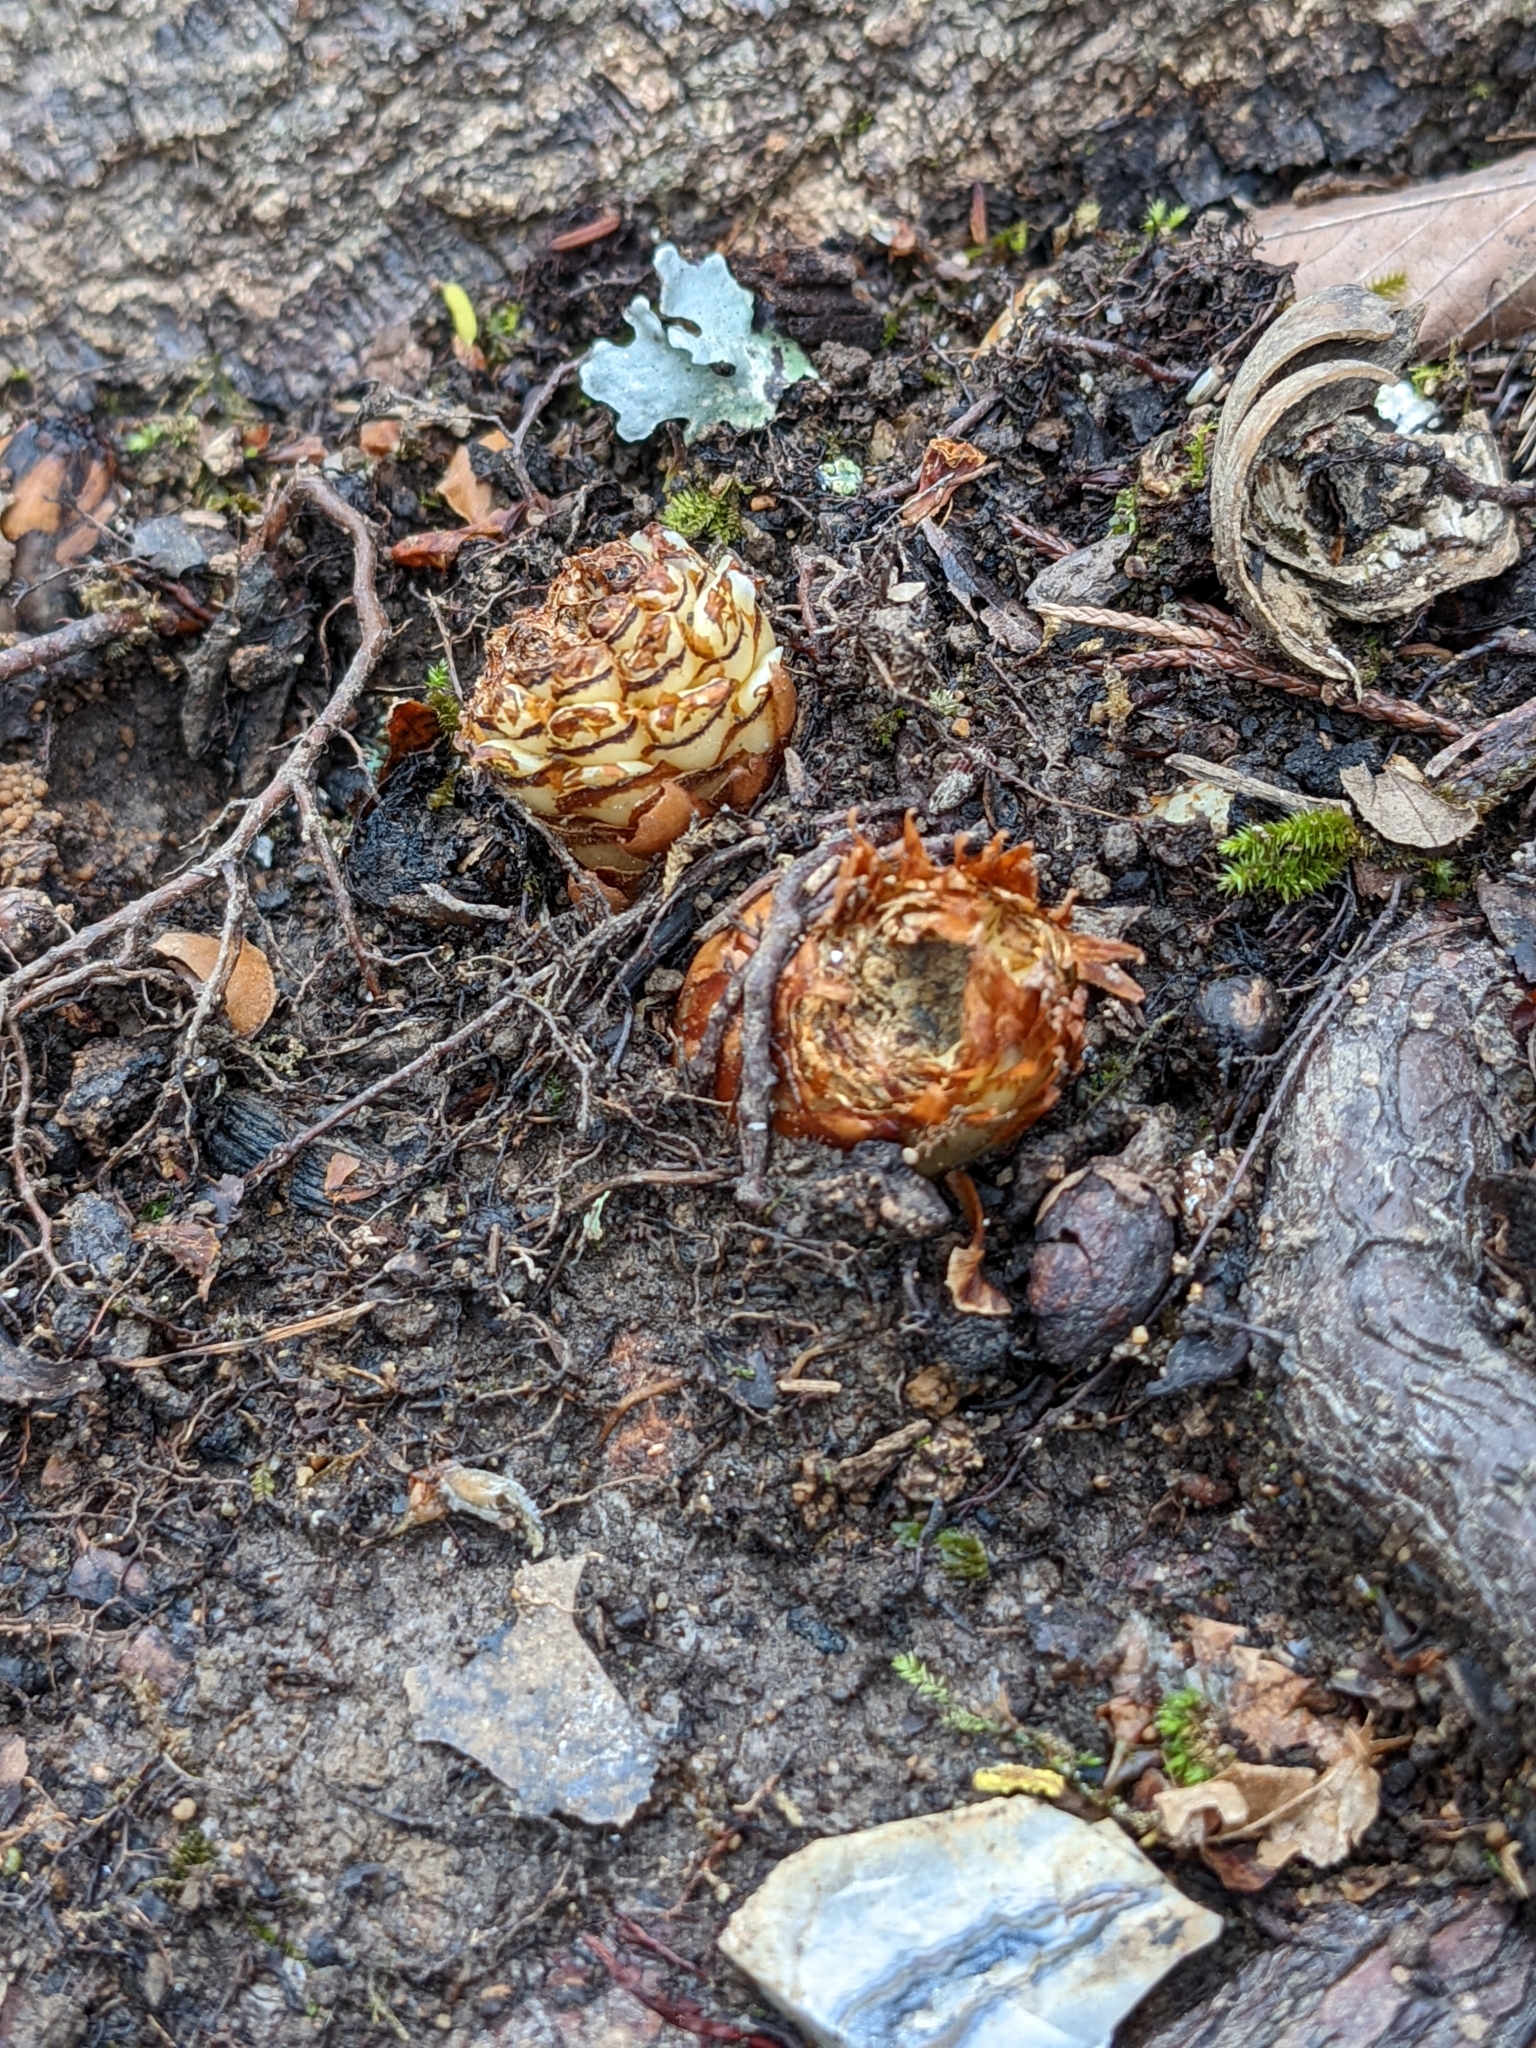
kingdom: Plantae
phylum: Tracheophyta
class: Magnoliopsida
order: Lamiales
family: Orobanchaceae
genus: Conopholis
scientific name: Conopholis americana
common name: American cancer-root
